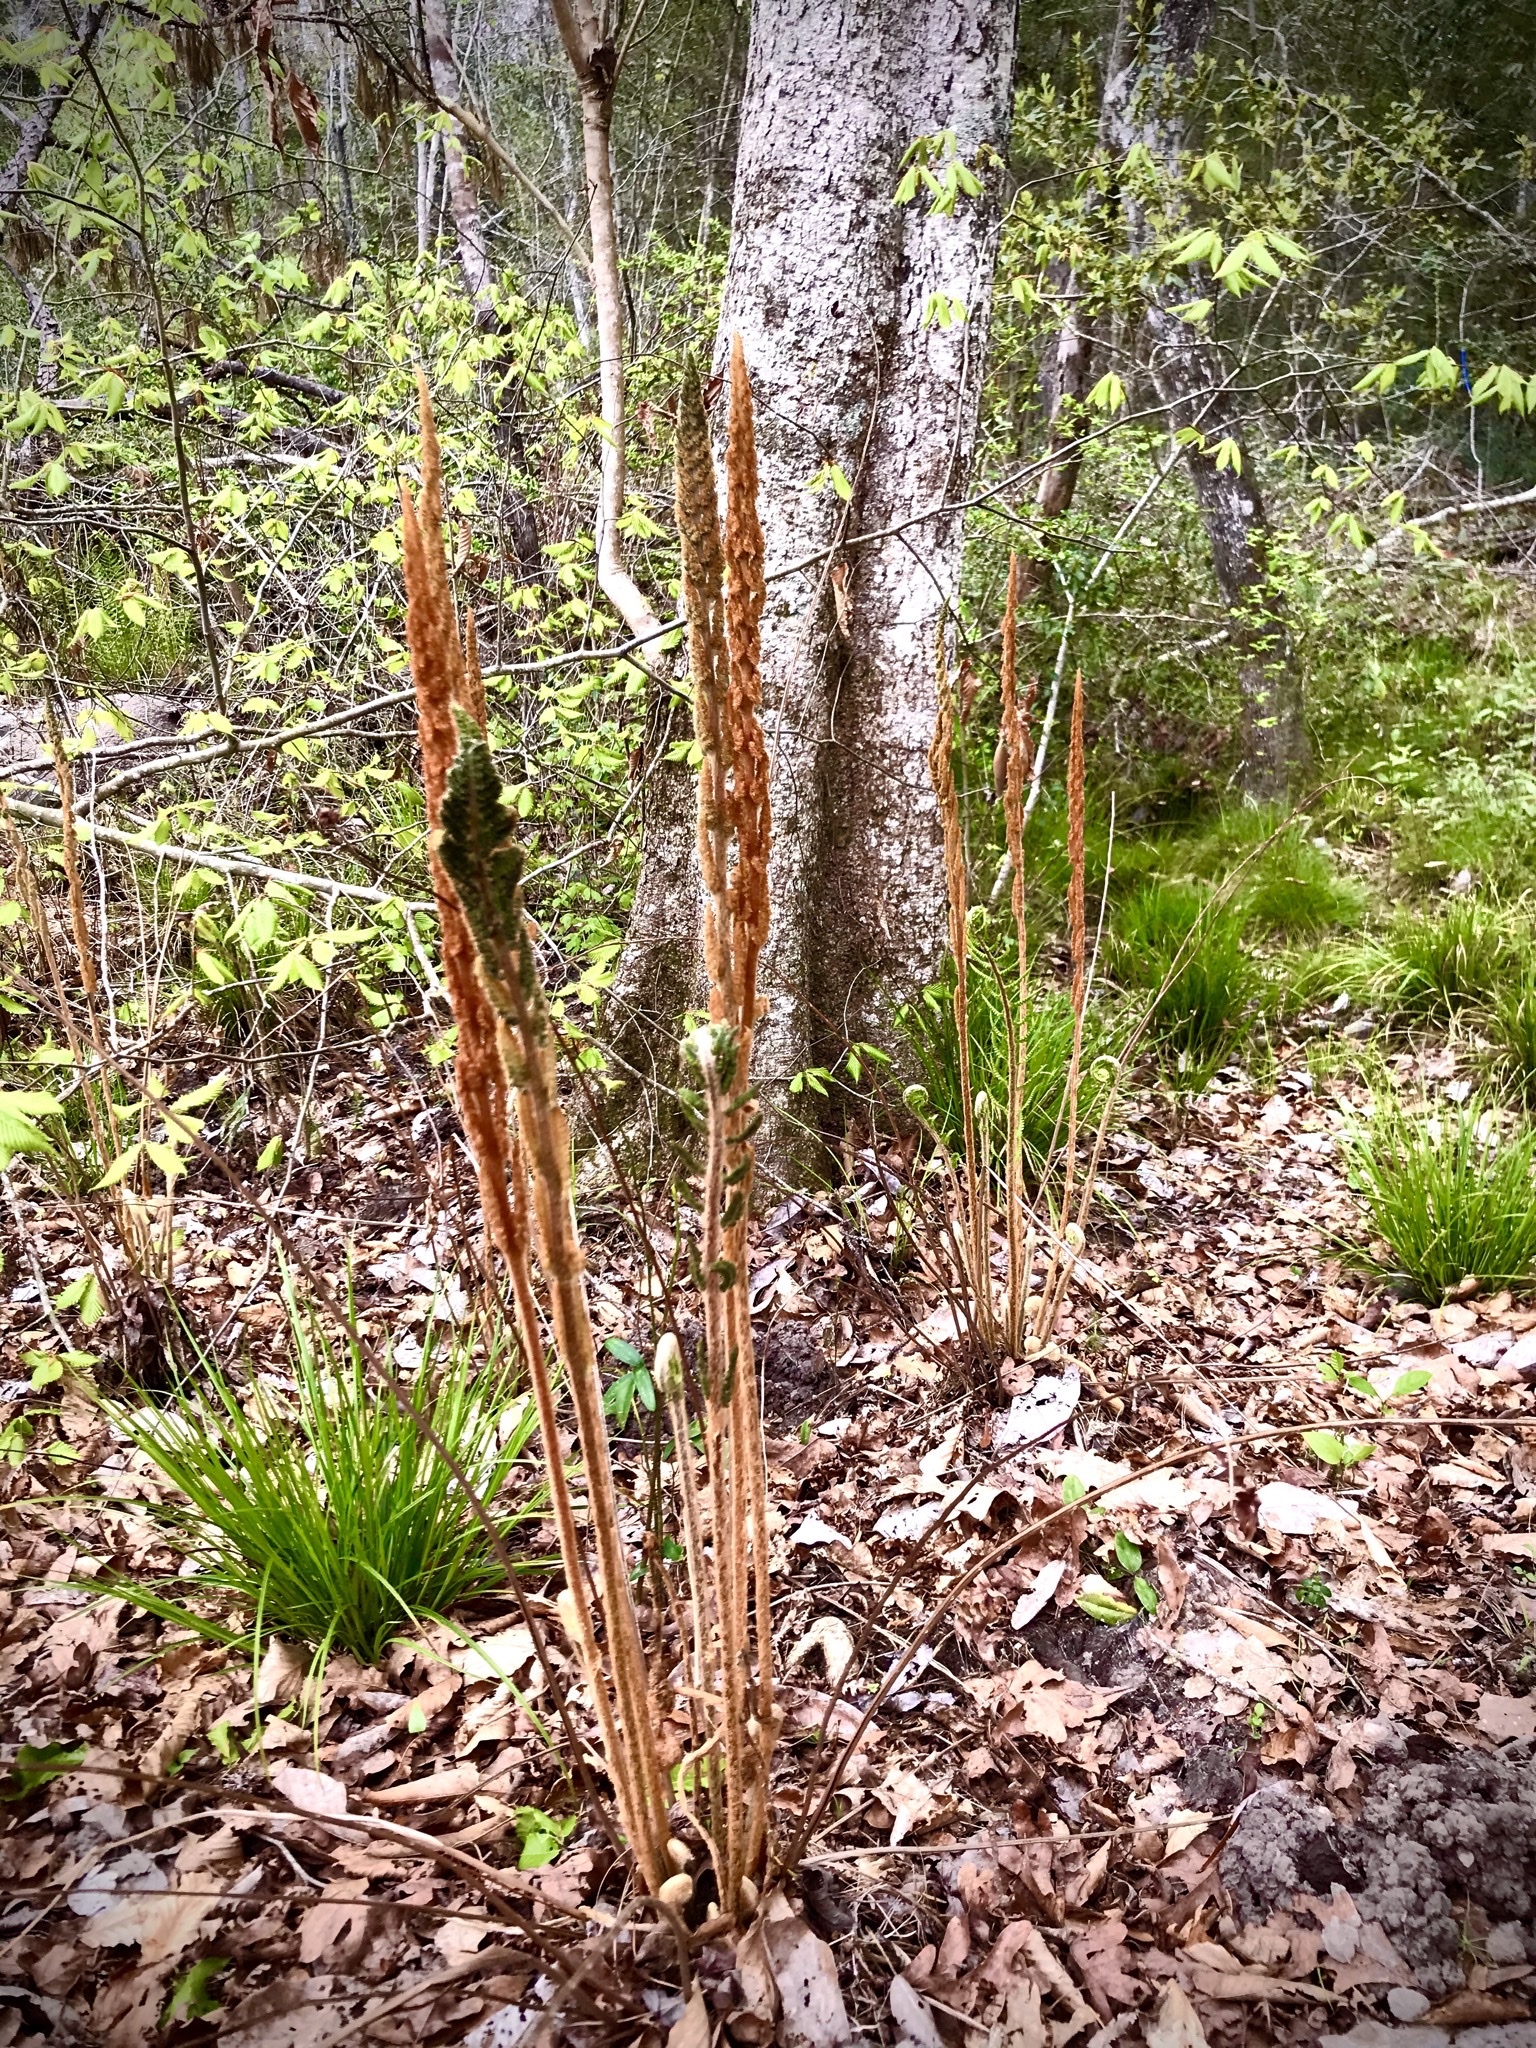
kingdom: Plantae
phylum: Tracheophyta
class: Polypodiopsida
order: Osmundales
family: Osmundaceae
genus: Osmundastrum
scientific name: Osmundastrum cinnamomeum
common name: Cinnamon fern
